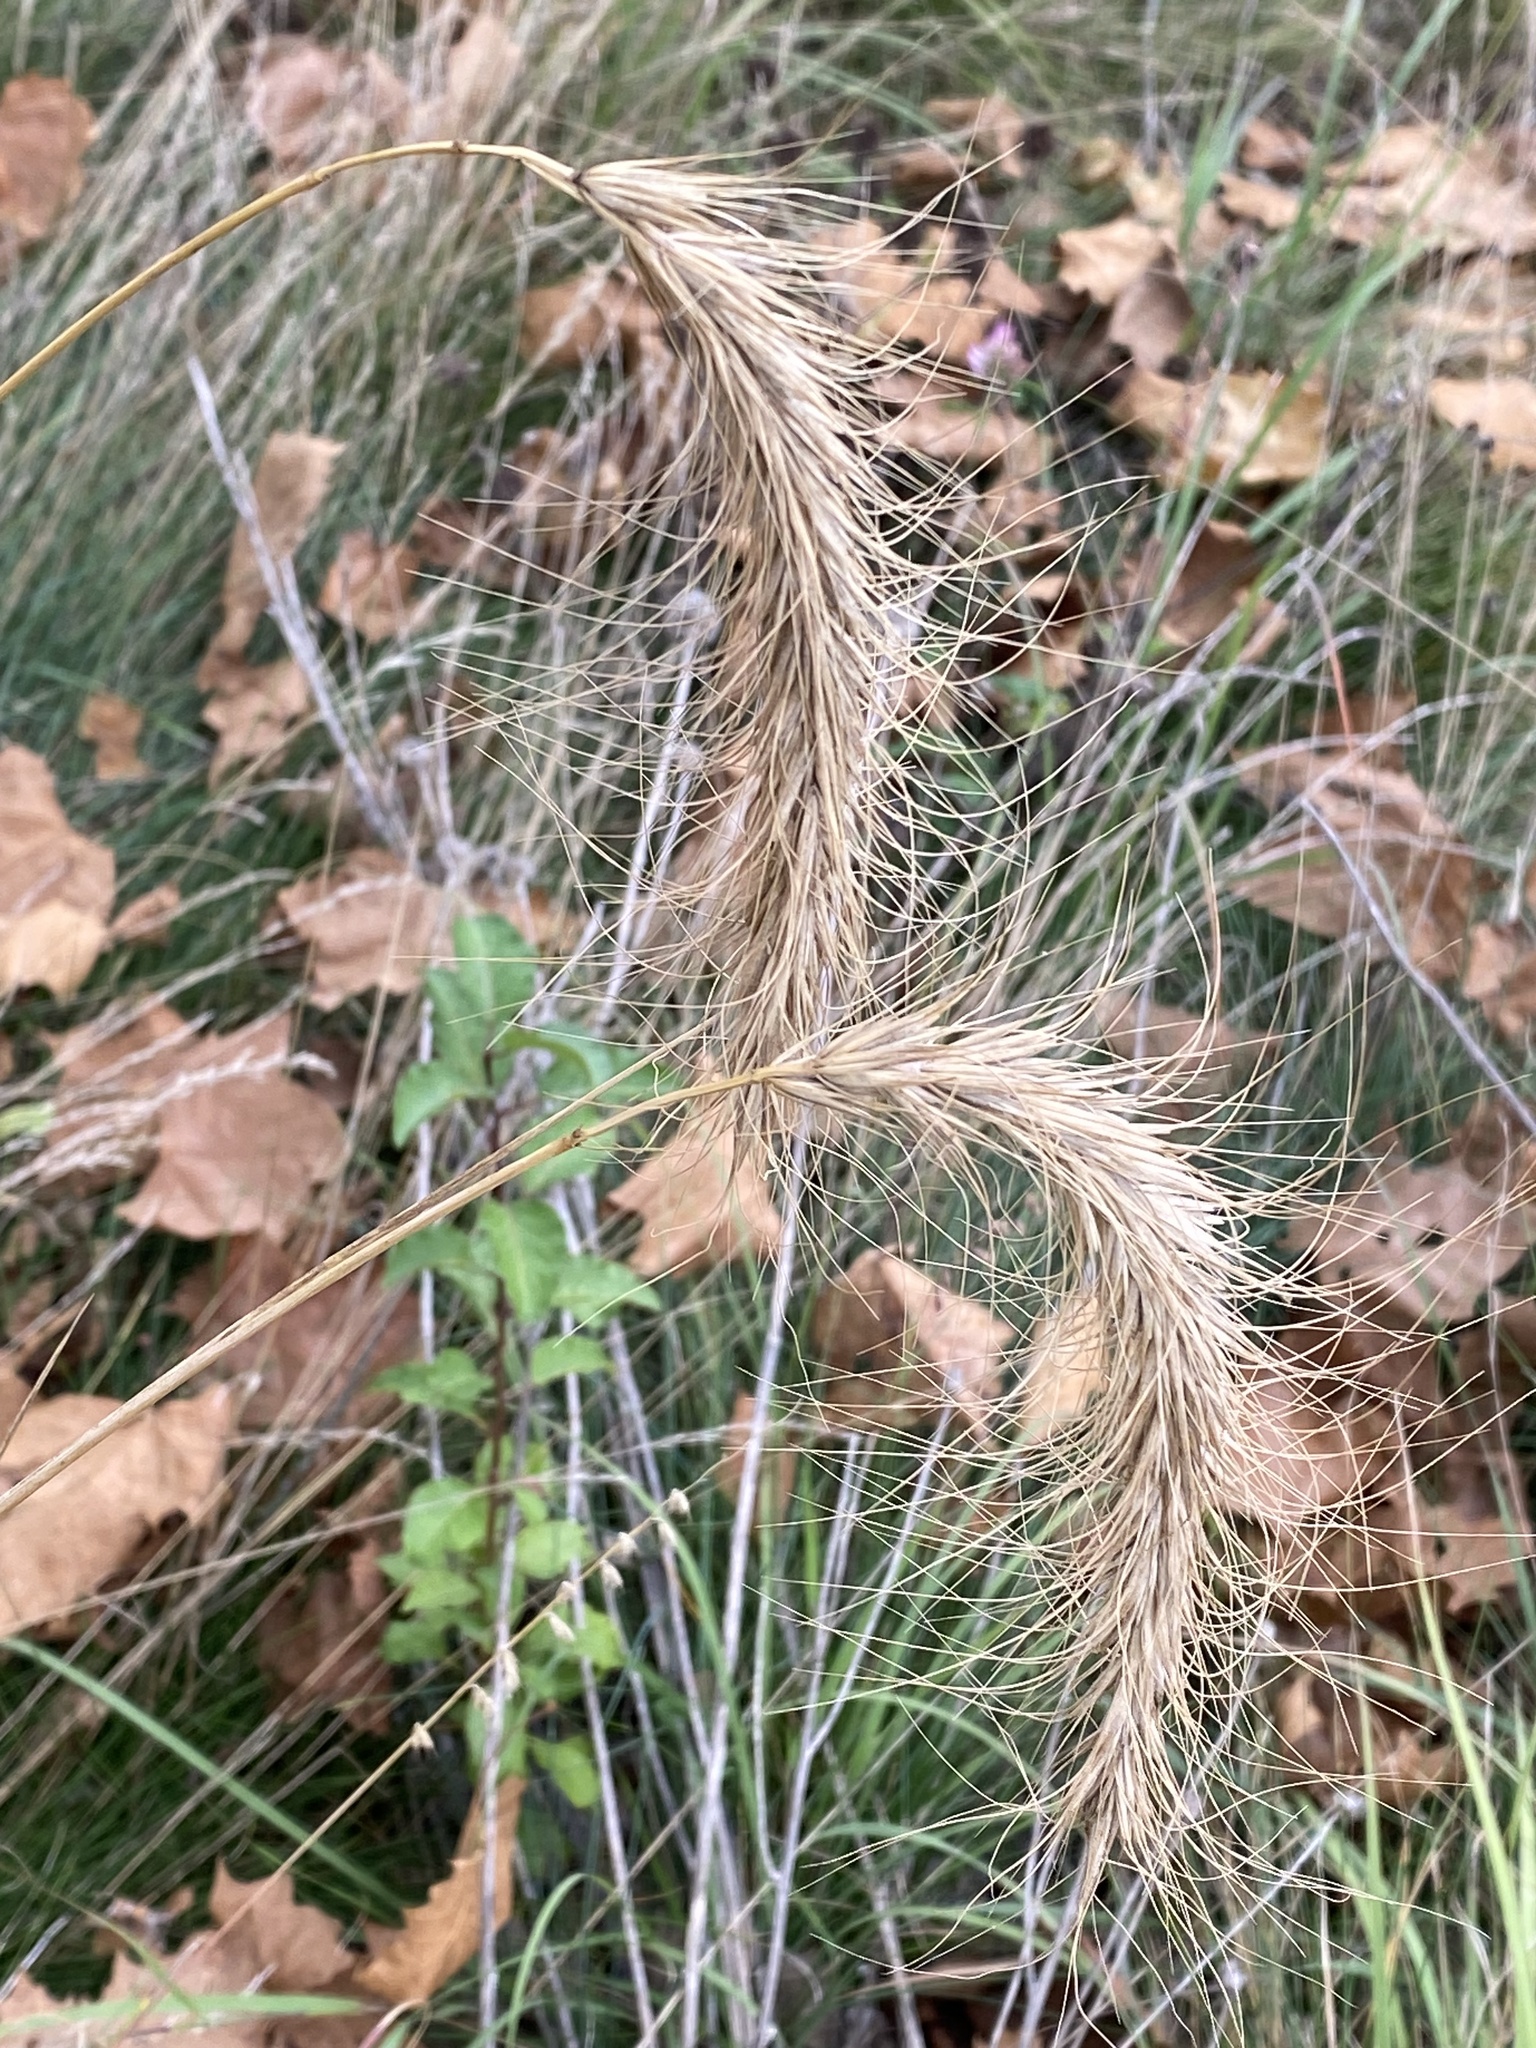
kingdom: Plantae
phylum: Tracheophyta
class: Liliopsida
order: Poales
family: Poaceae
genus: Elymus
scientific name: Elymus canadensis
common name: Canada wild rye
